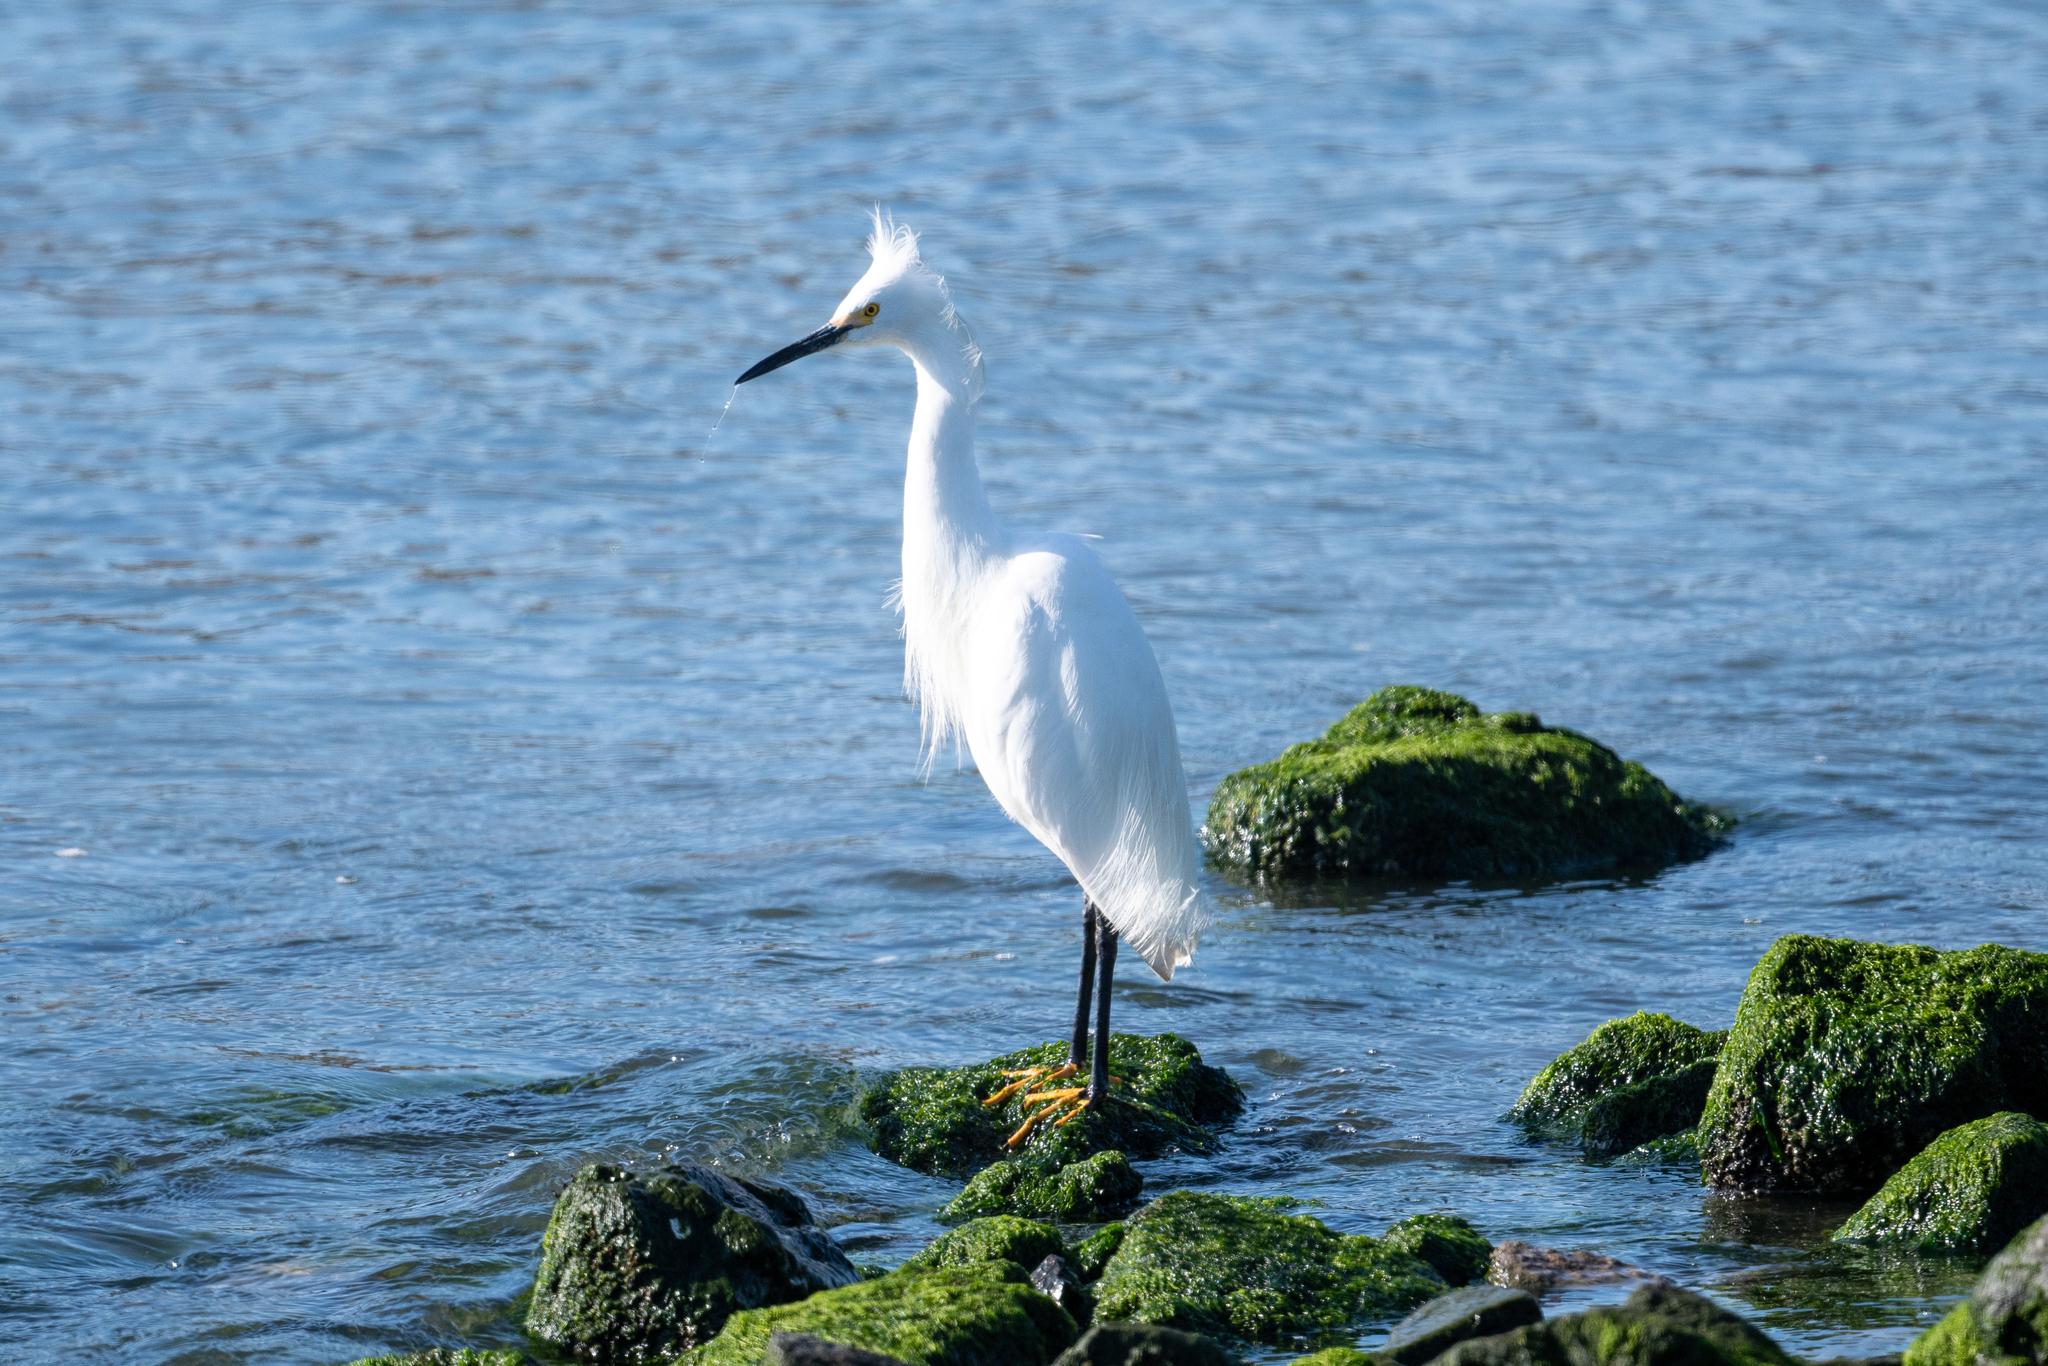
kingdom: Animalia
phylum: Chordata
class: Aves
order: Pelecaniformes
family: Ardeidae
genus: Egretta
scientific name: Egretta thula
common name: Snowy egret
